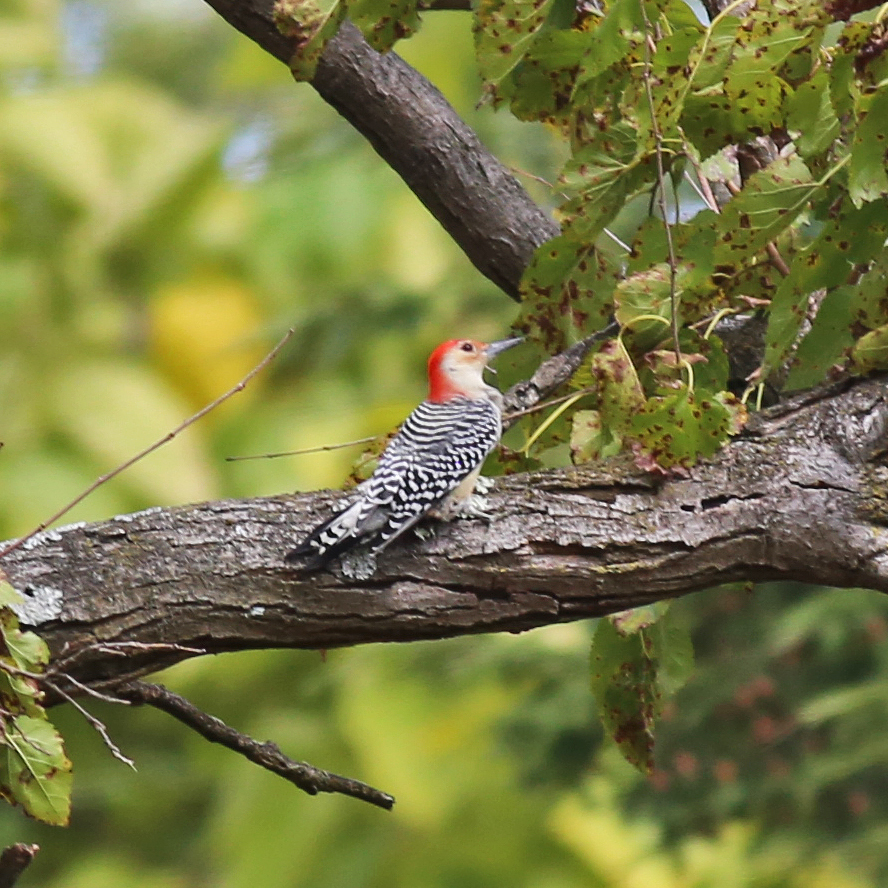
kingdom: Animalia
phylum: Chordata
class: Aves
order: Piciformes
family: Picidae
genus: Melanerpes
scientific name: Melanerpes carolinus
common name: Red-bellied woodpecker
